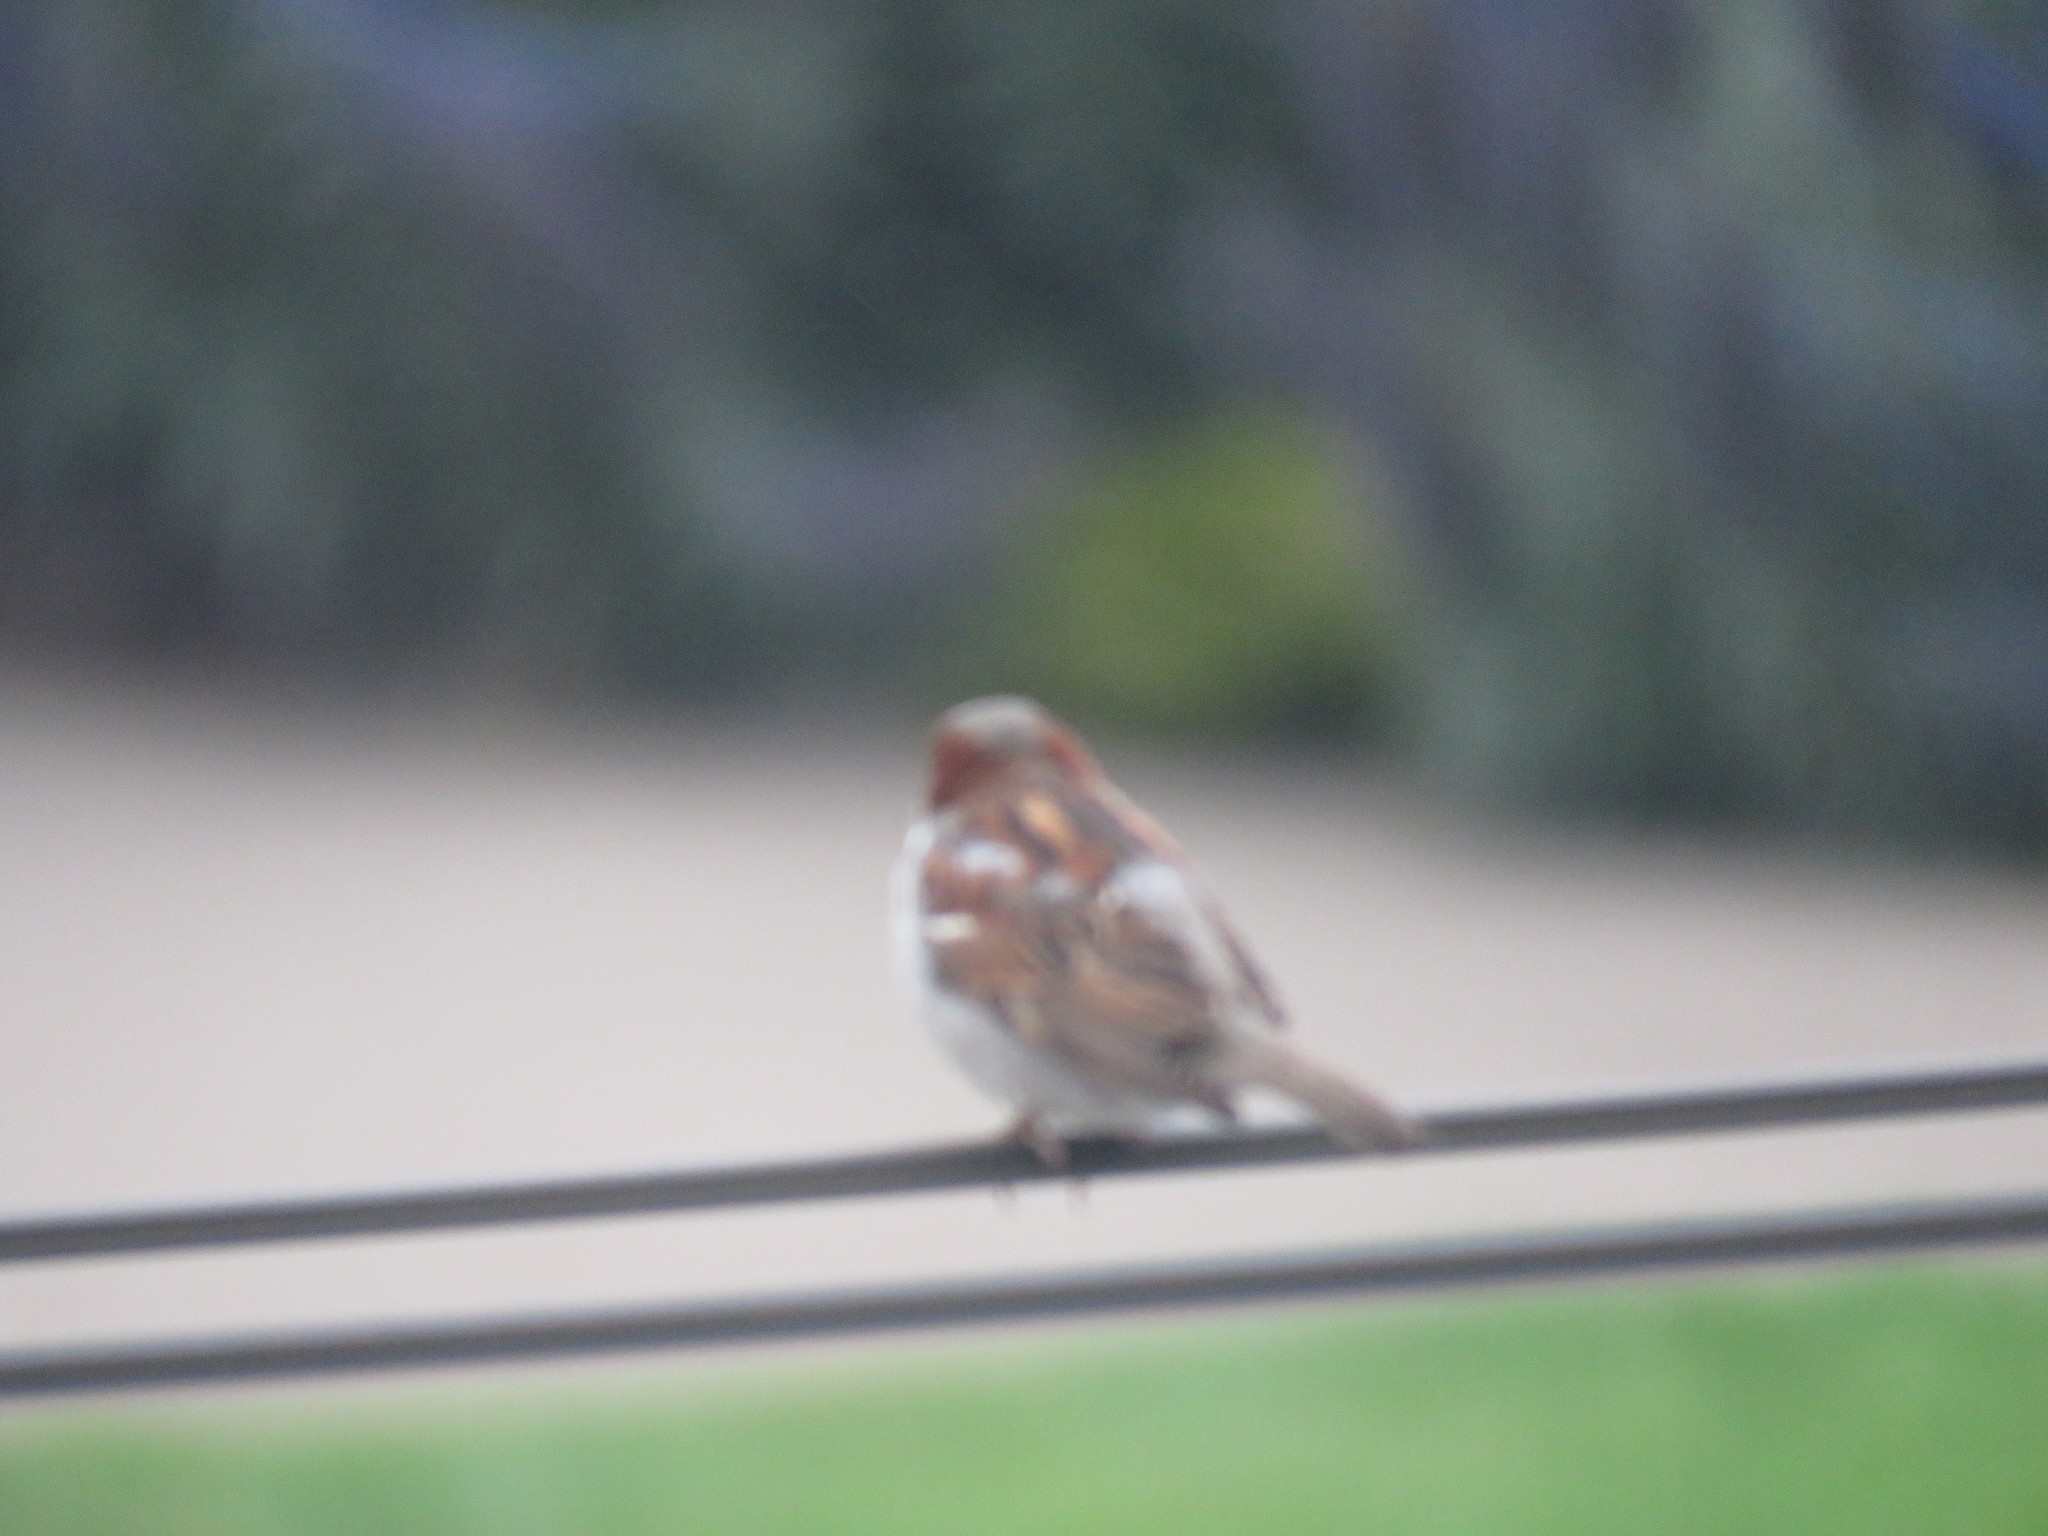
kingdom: Animalia
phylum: Chordata
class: Aves
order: Passeriformes
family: Passeridae
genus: Passer
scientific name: Passer domesticus
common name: House sparrow
